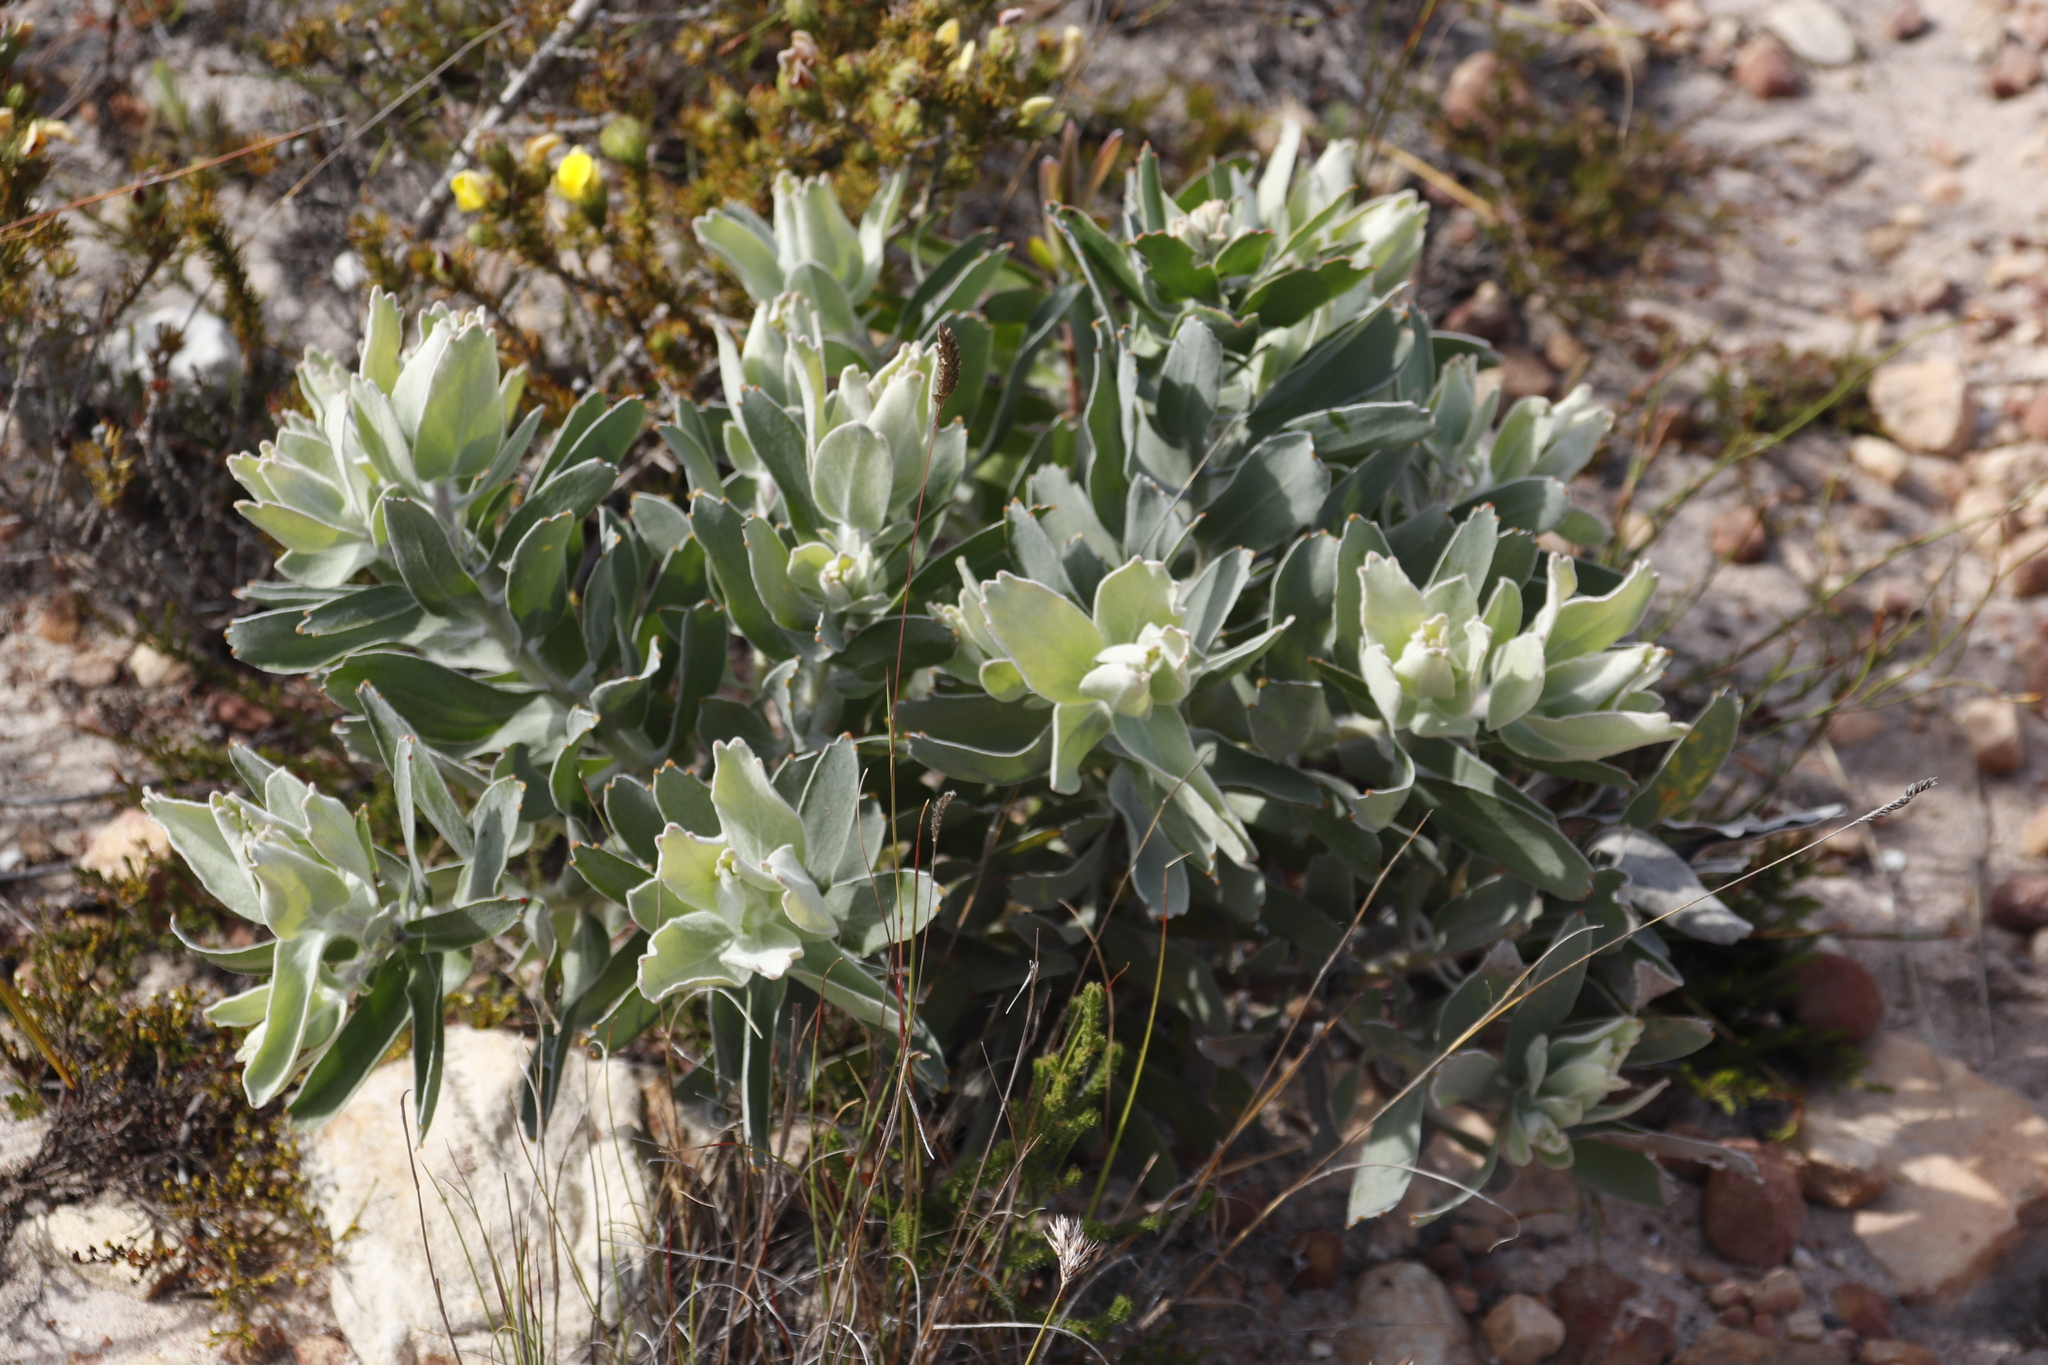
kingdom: Plantae
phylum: Tracheophyta
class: Magnoliopsida
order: Proteales
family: Proteaceae
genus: Leucospermum
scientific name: Leucospermum cordifolium
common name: Red pincushion-protea
